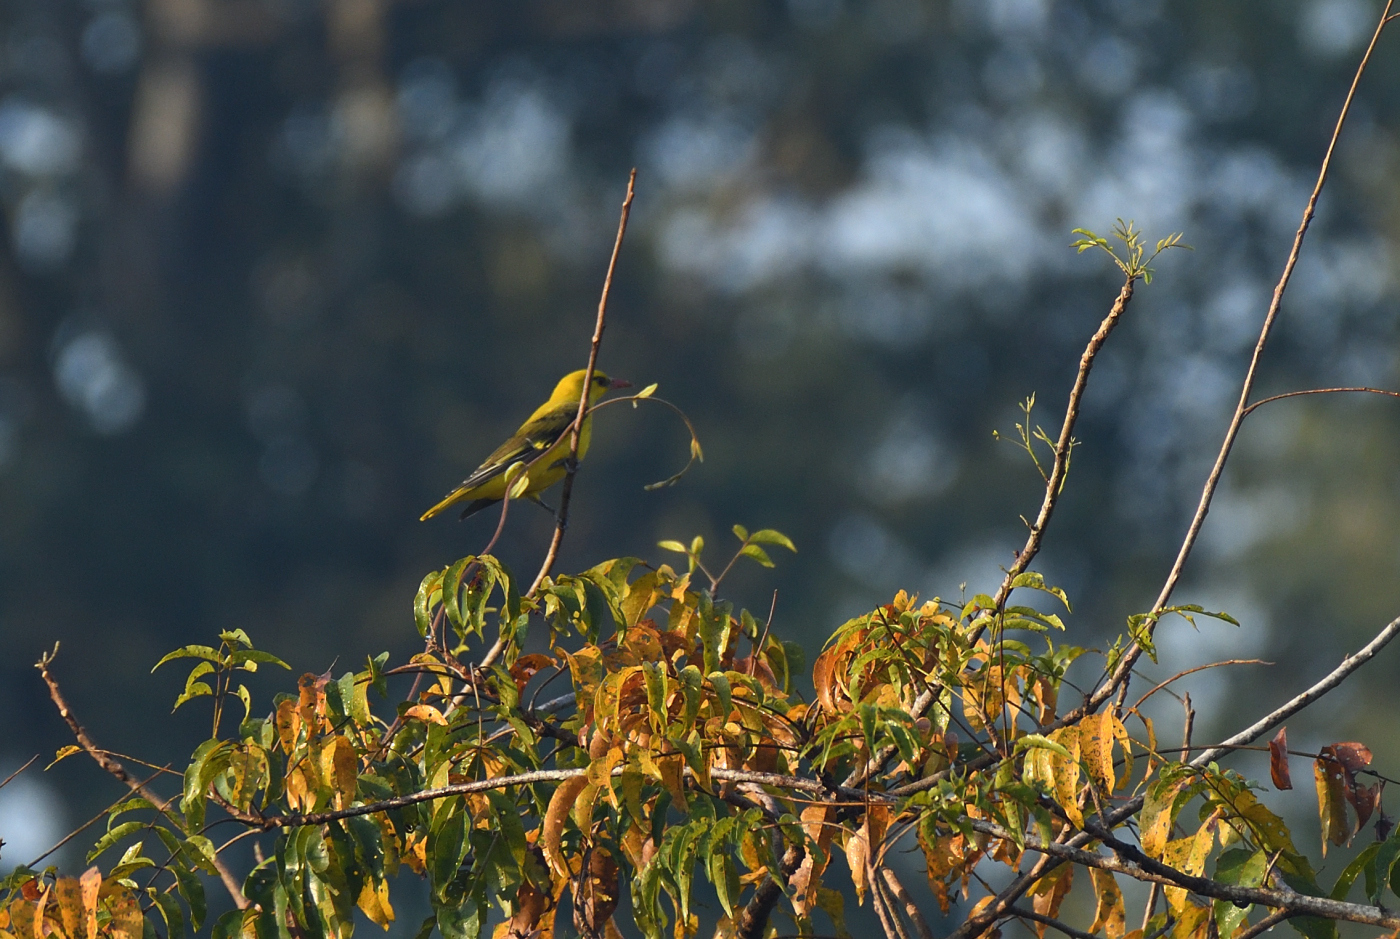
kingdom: Animalia
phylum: Chordata
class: Aves
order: Passeriformes
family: Oriolidae
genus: Oriolus
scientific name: Oriolus kundoo
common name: Indian golden oriole
